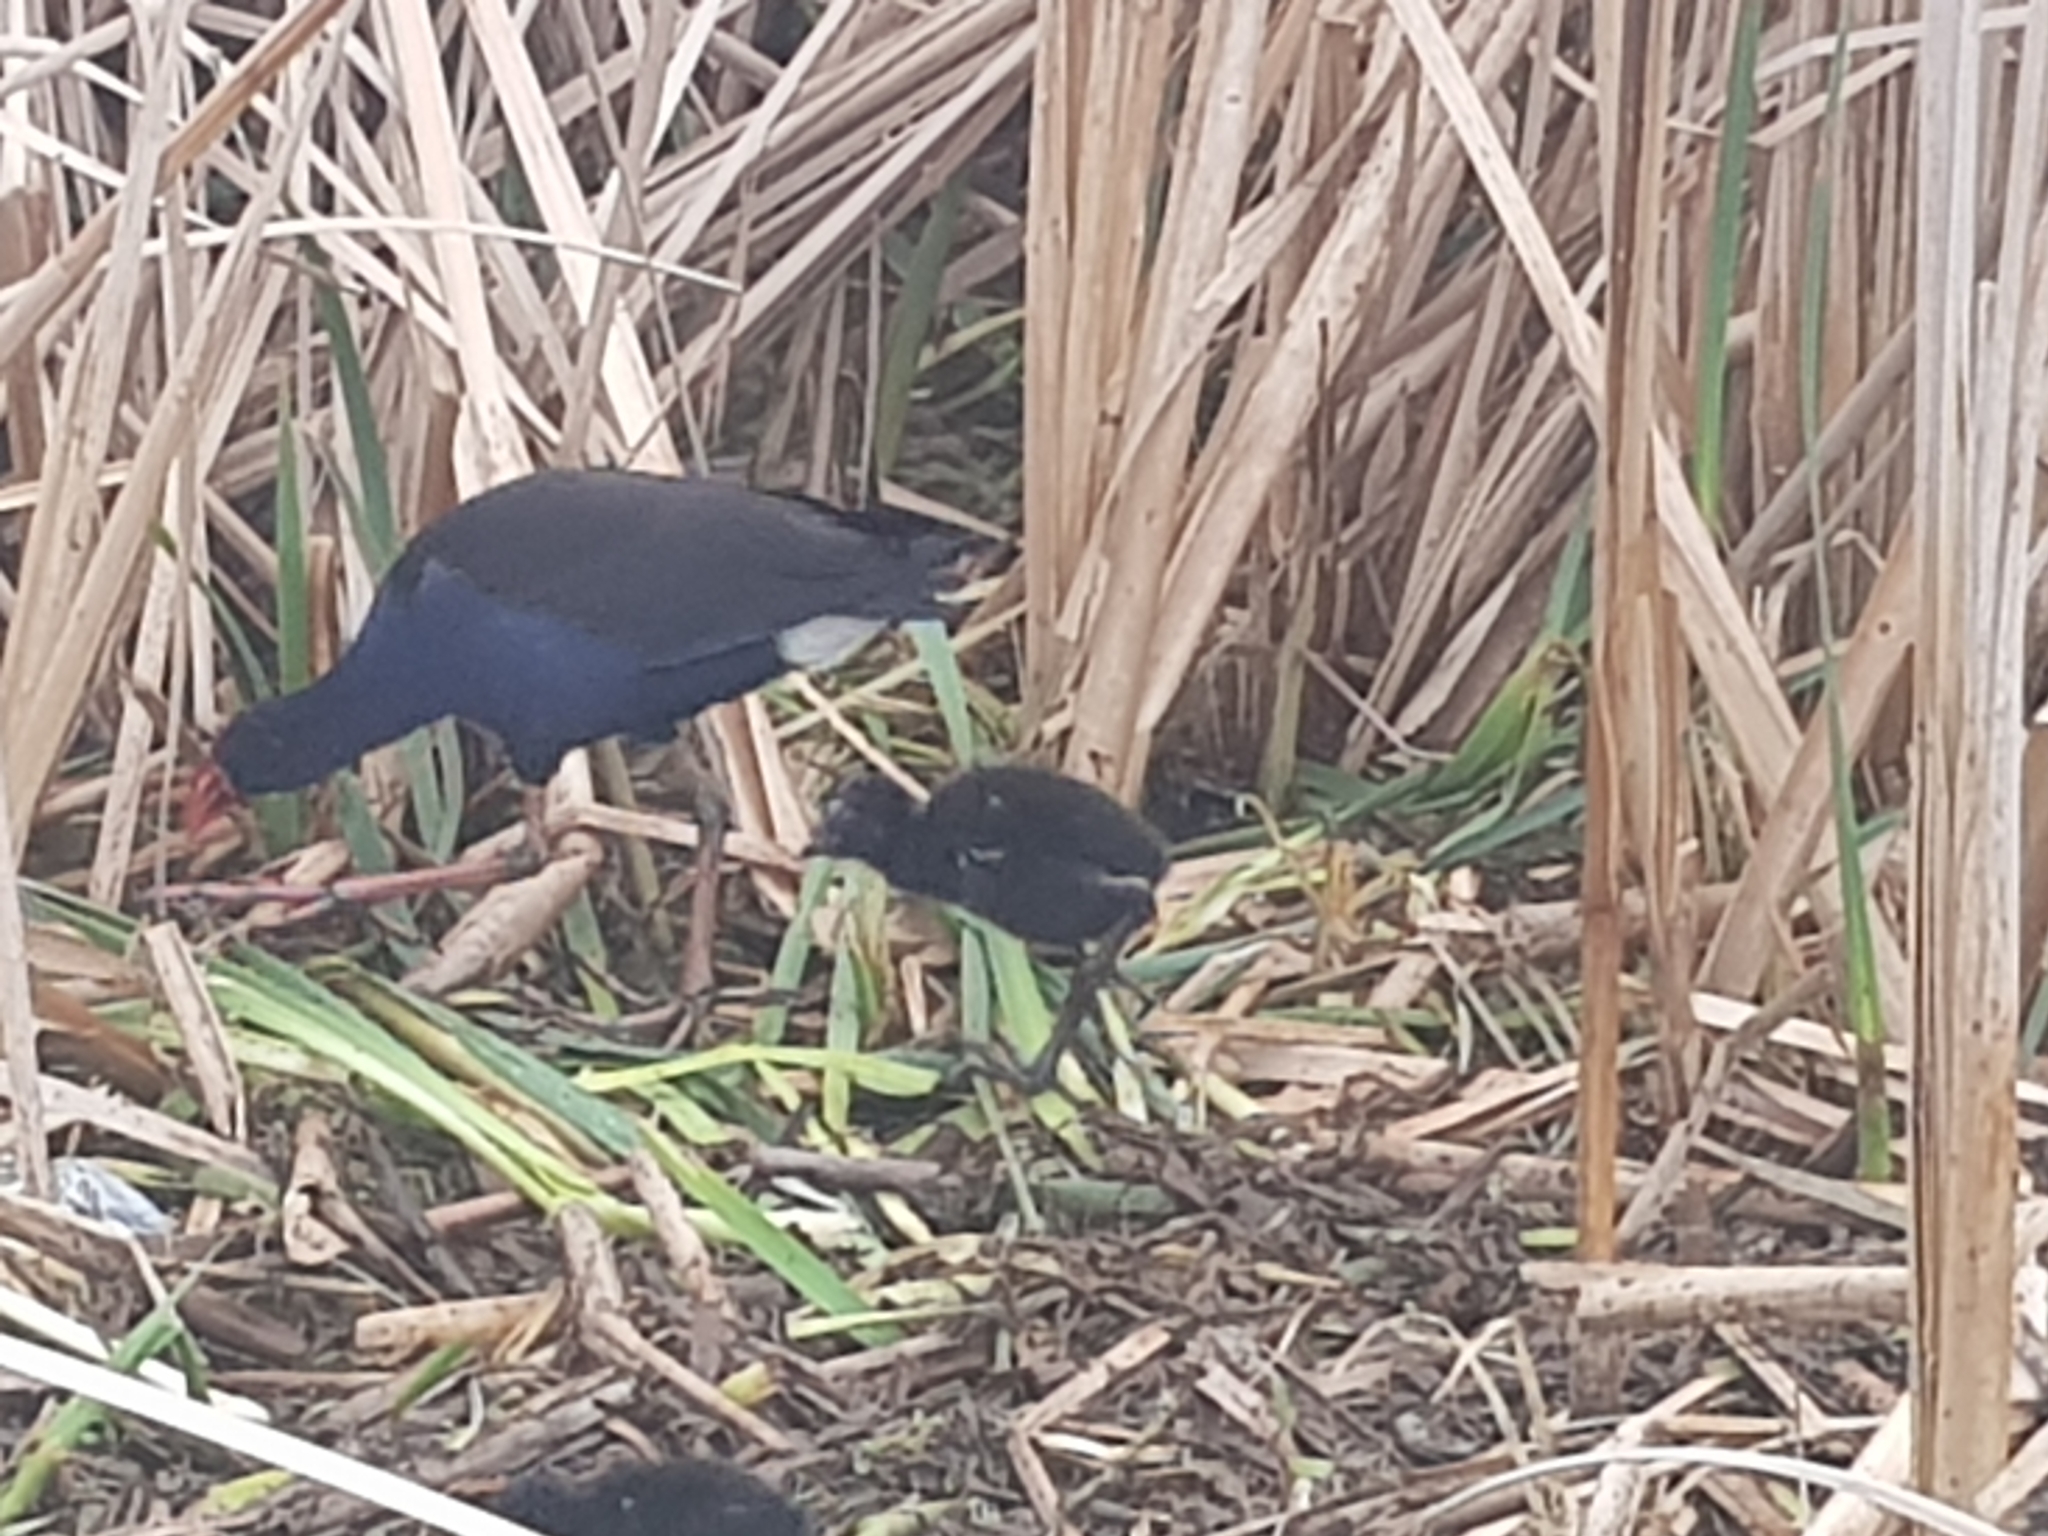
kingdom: Animalia
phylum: Chordata
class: Aves
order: Gruiformes
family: Rallidae
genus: Porphyrio
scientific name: Porphyrio melanotus
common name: Australasian swamphen
